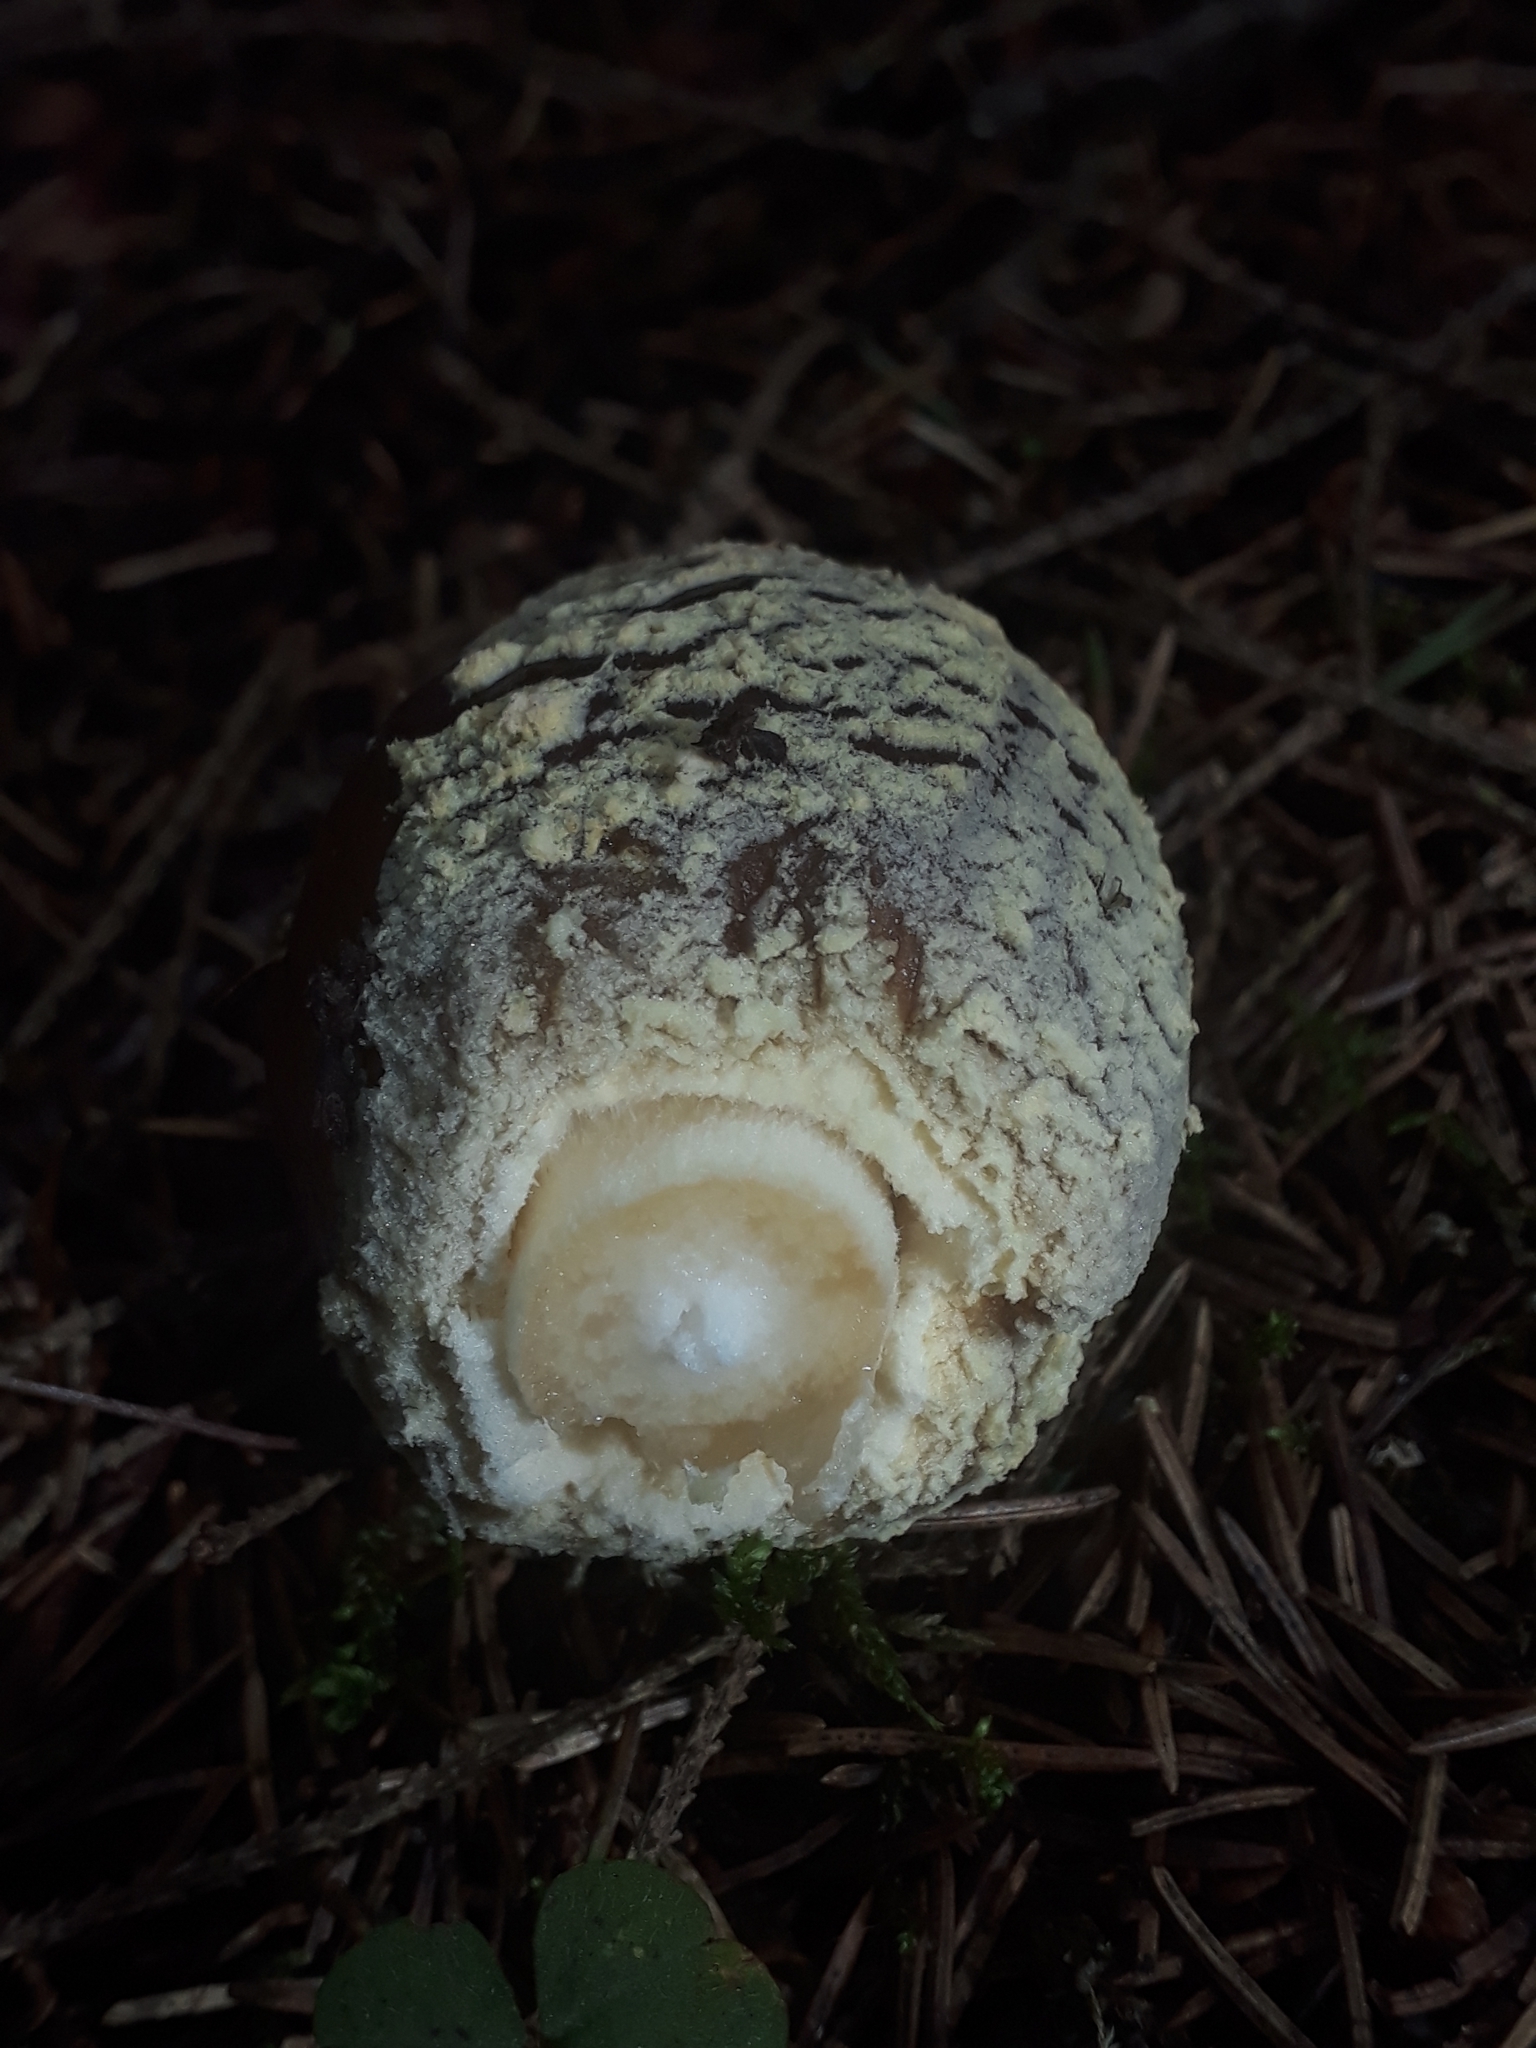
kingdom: Fungi
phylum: Basidiomycota
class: Agaricomycetes
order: Agaricales
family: Amanitaceae
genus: Amanita
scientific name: Amanita regalis
